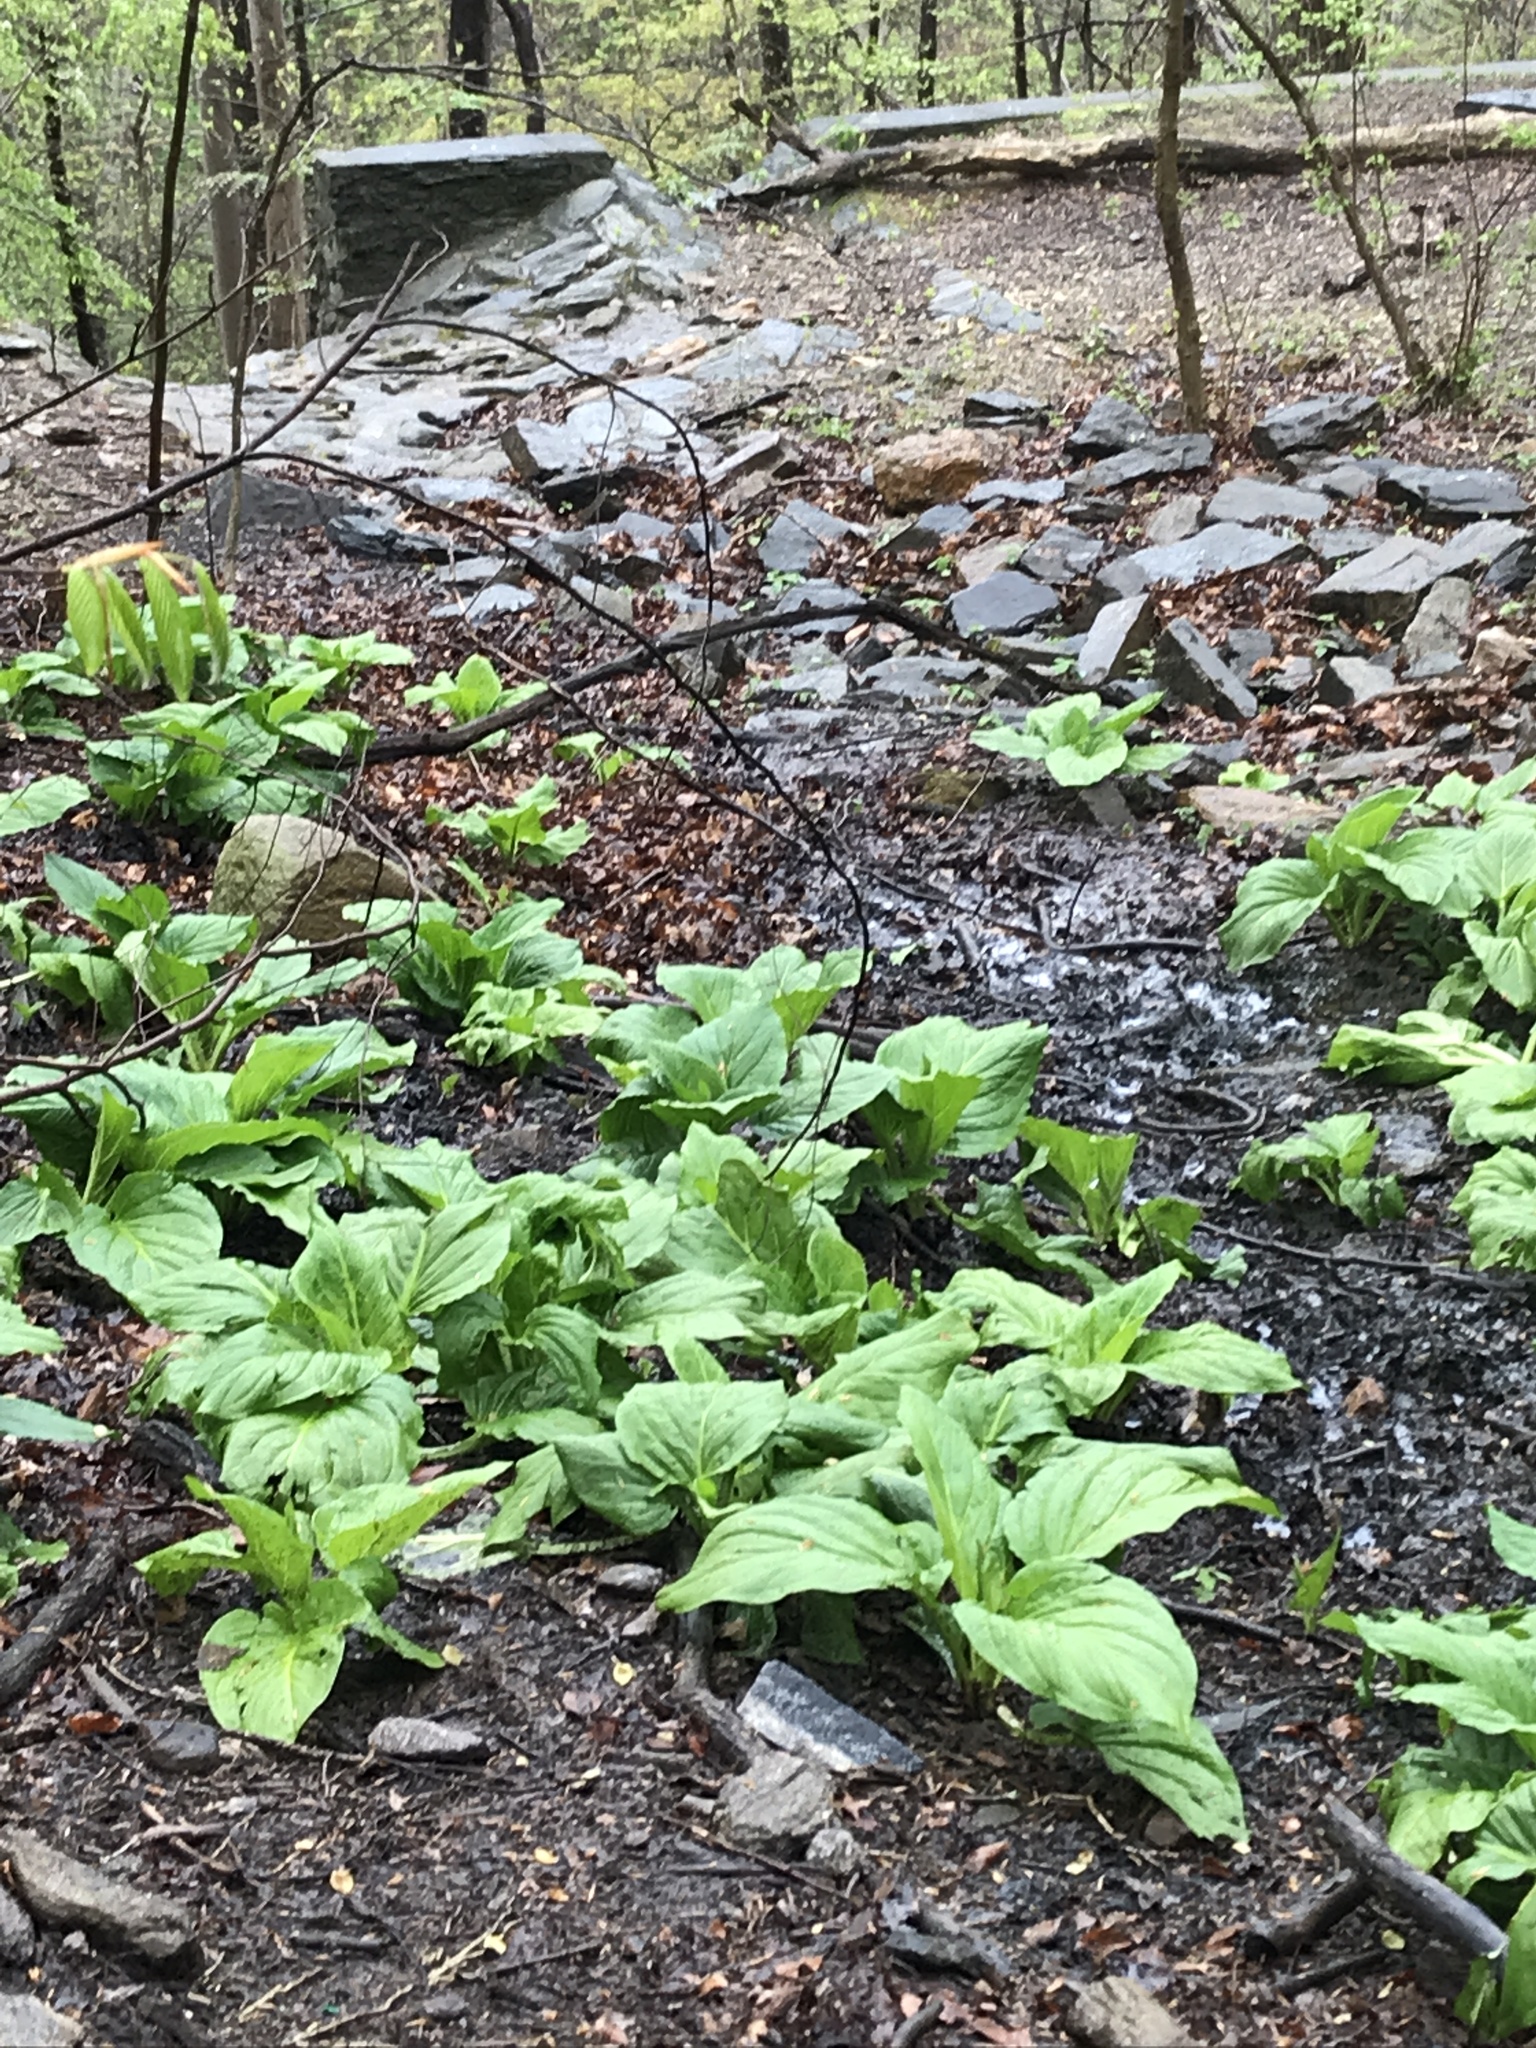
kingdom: Plantae
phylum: Tracheophyta
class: Liliopsida
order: Alismatales
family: Araceae
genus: Symplocarpus
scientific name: Symplocarpus foetidus
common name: Eastern skunk cabbage
